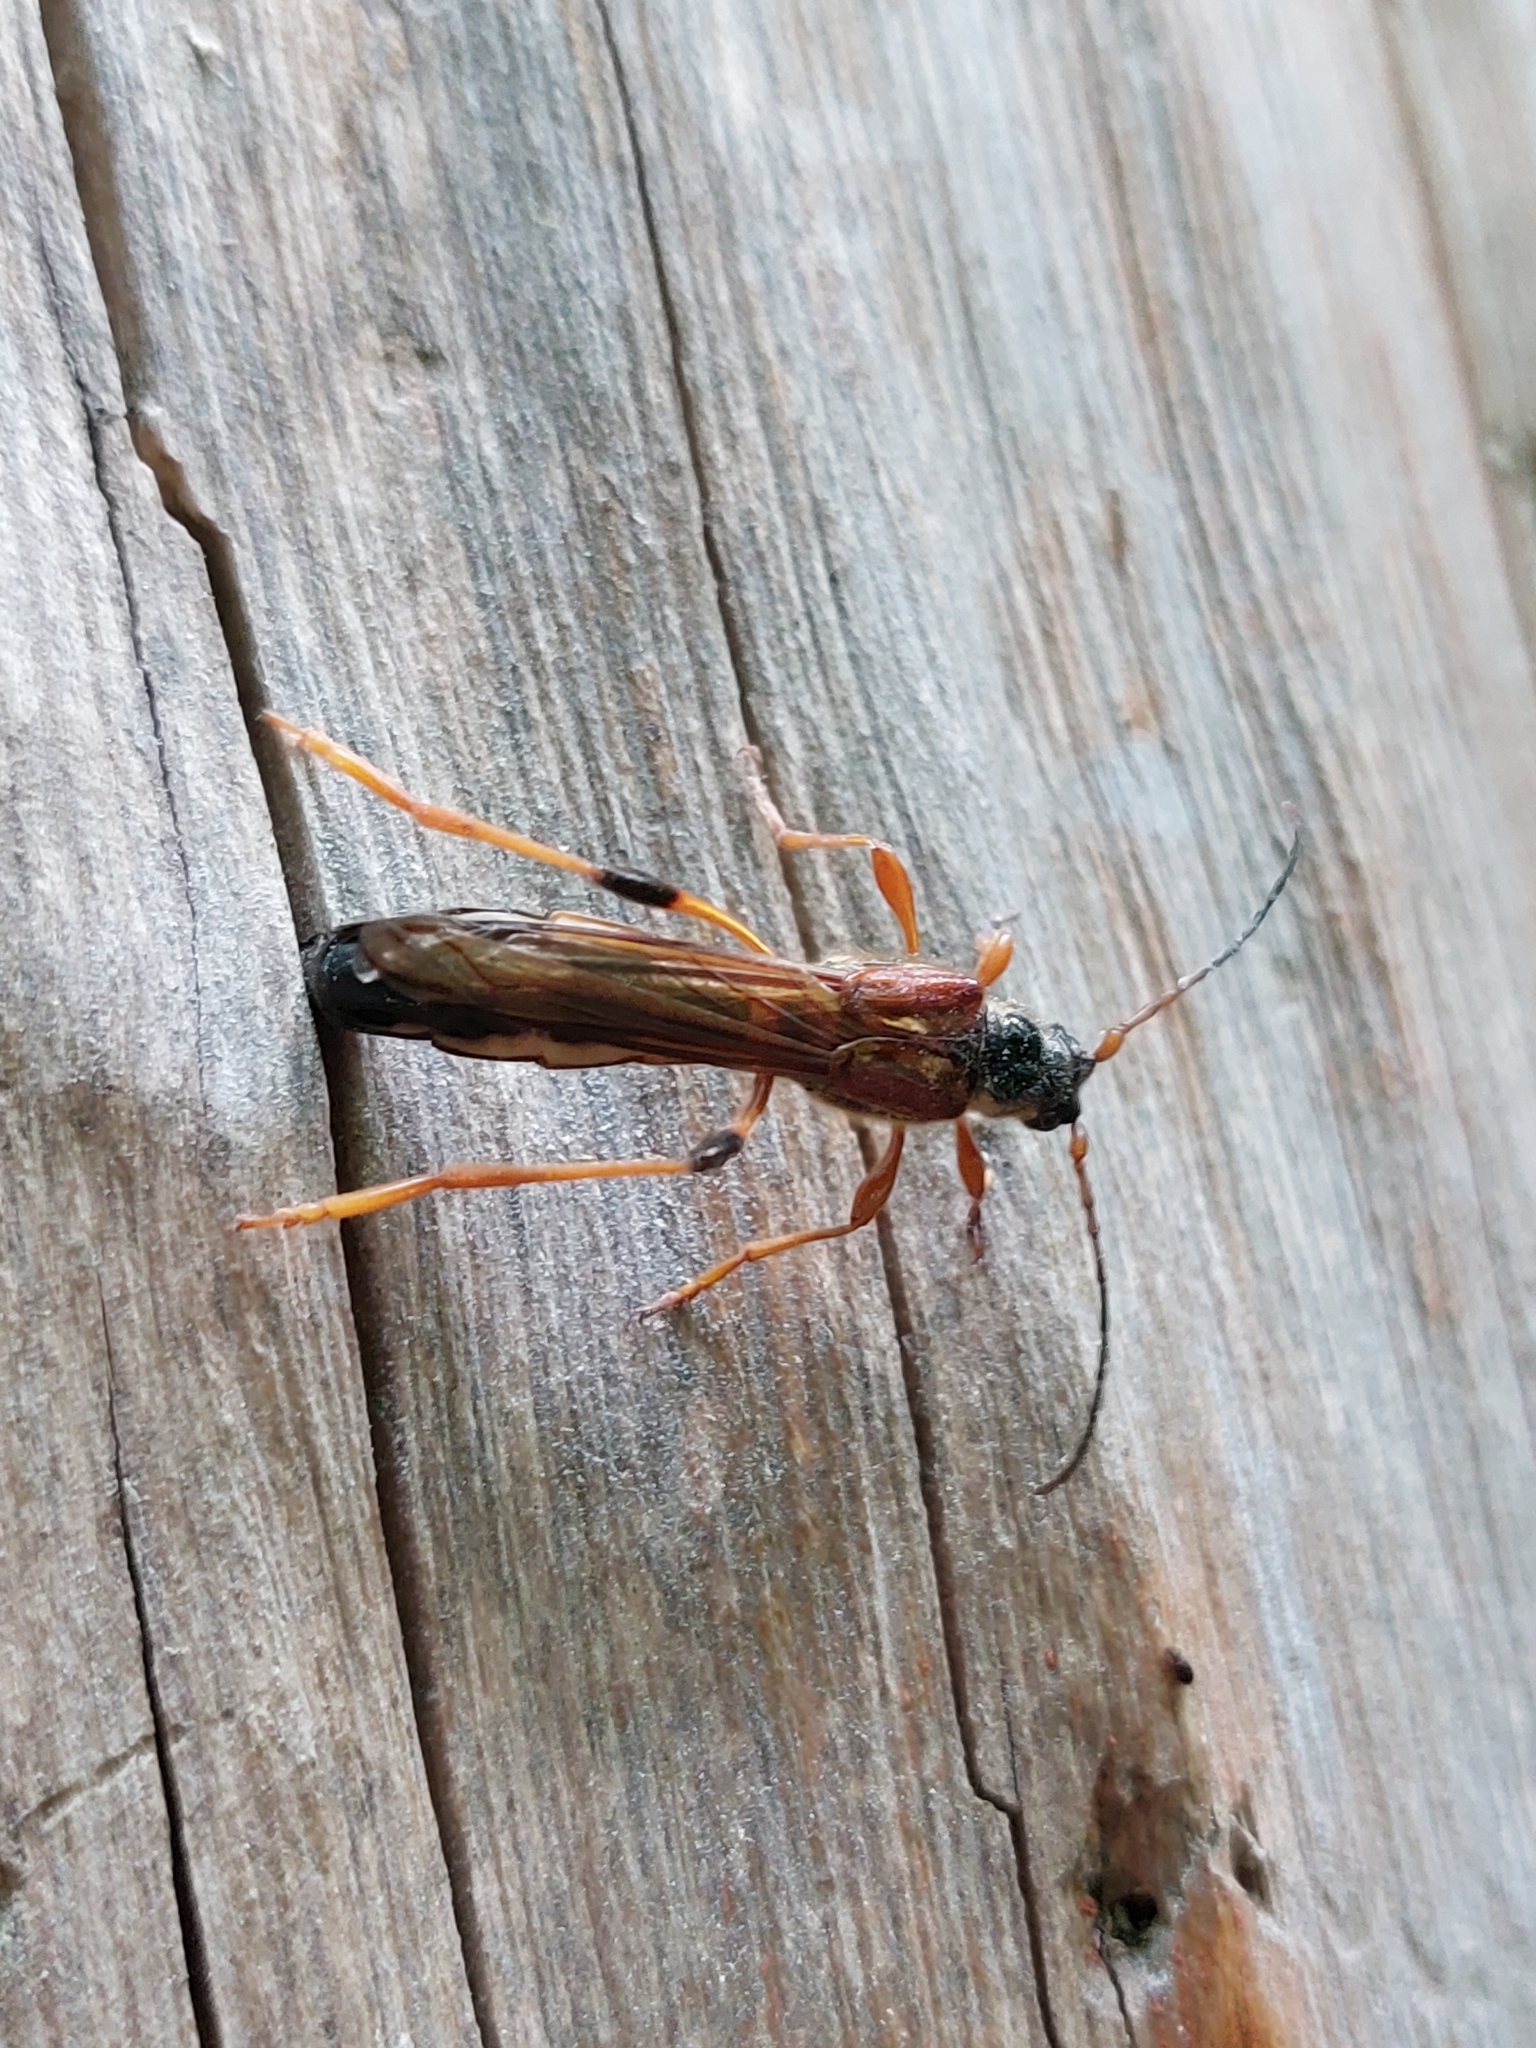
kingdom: Animalia
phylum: Arthropoda
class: Insecta
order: Coleoptera
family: Cerambycidae
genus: Necydalis
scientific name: Necydalis major
